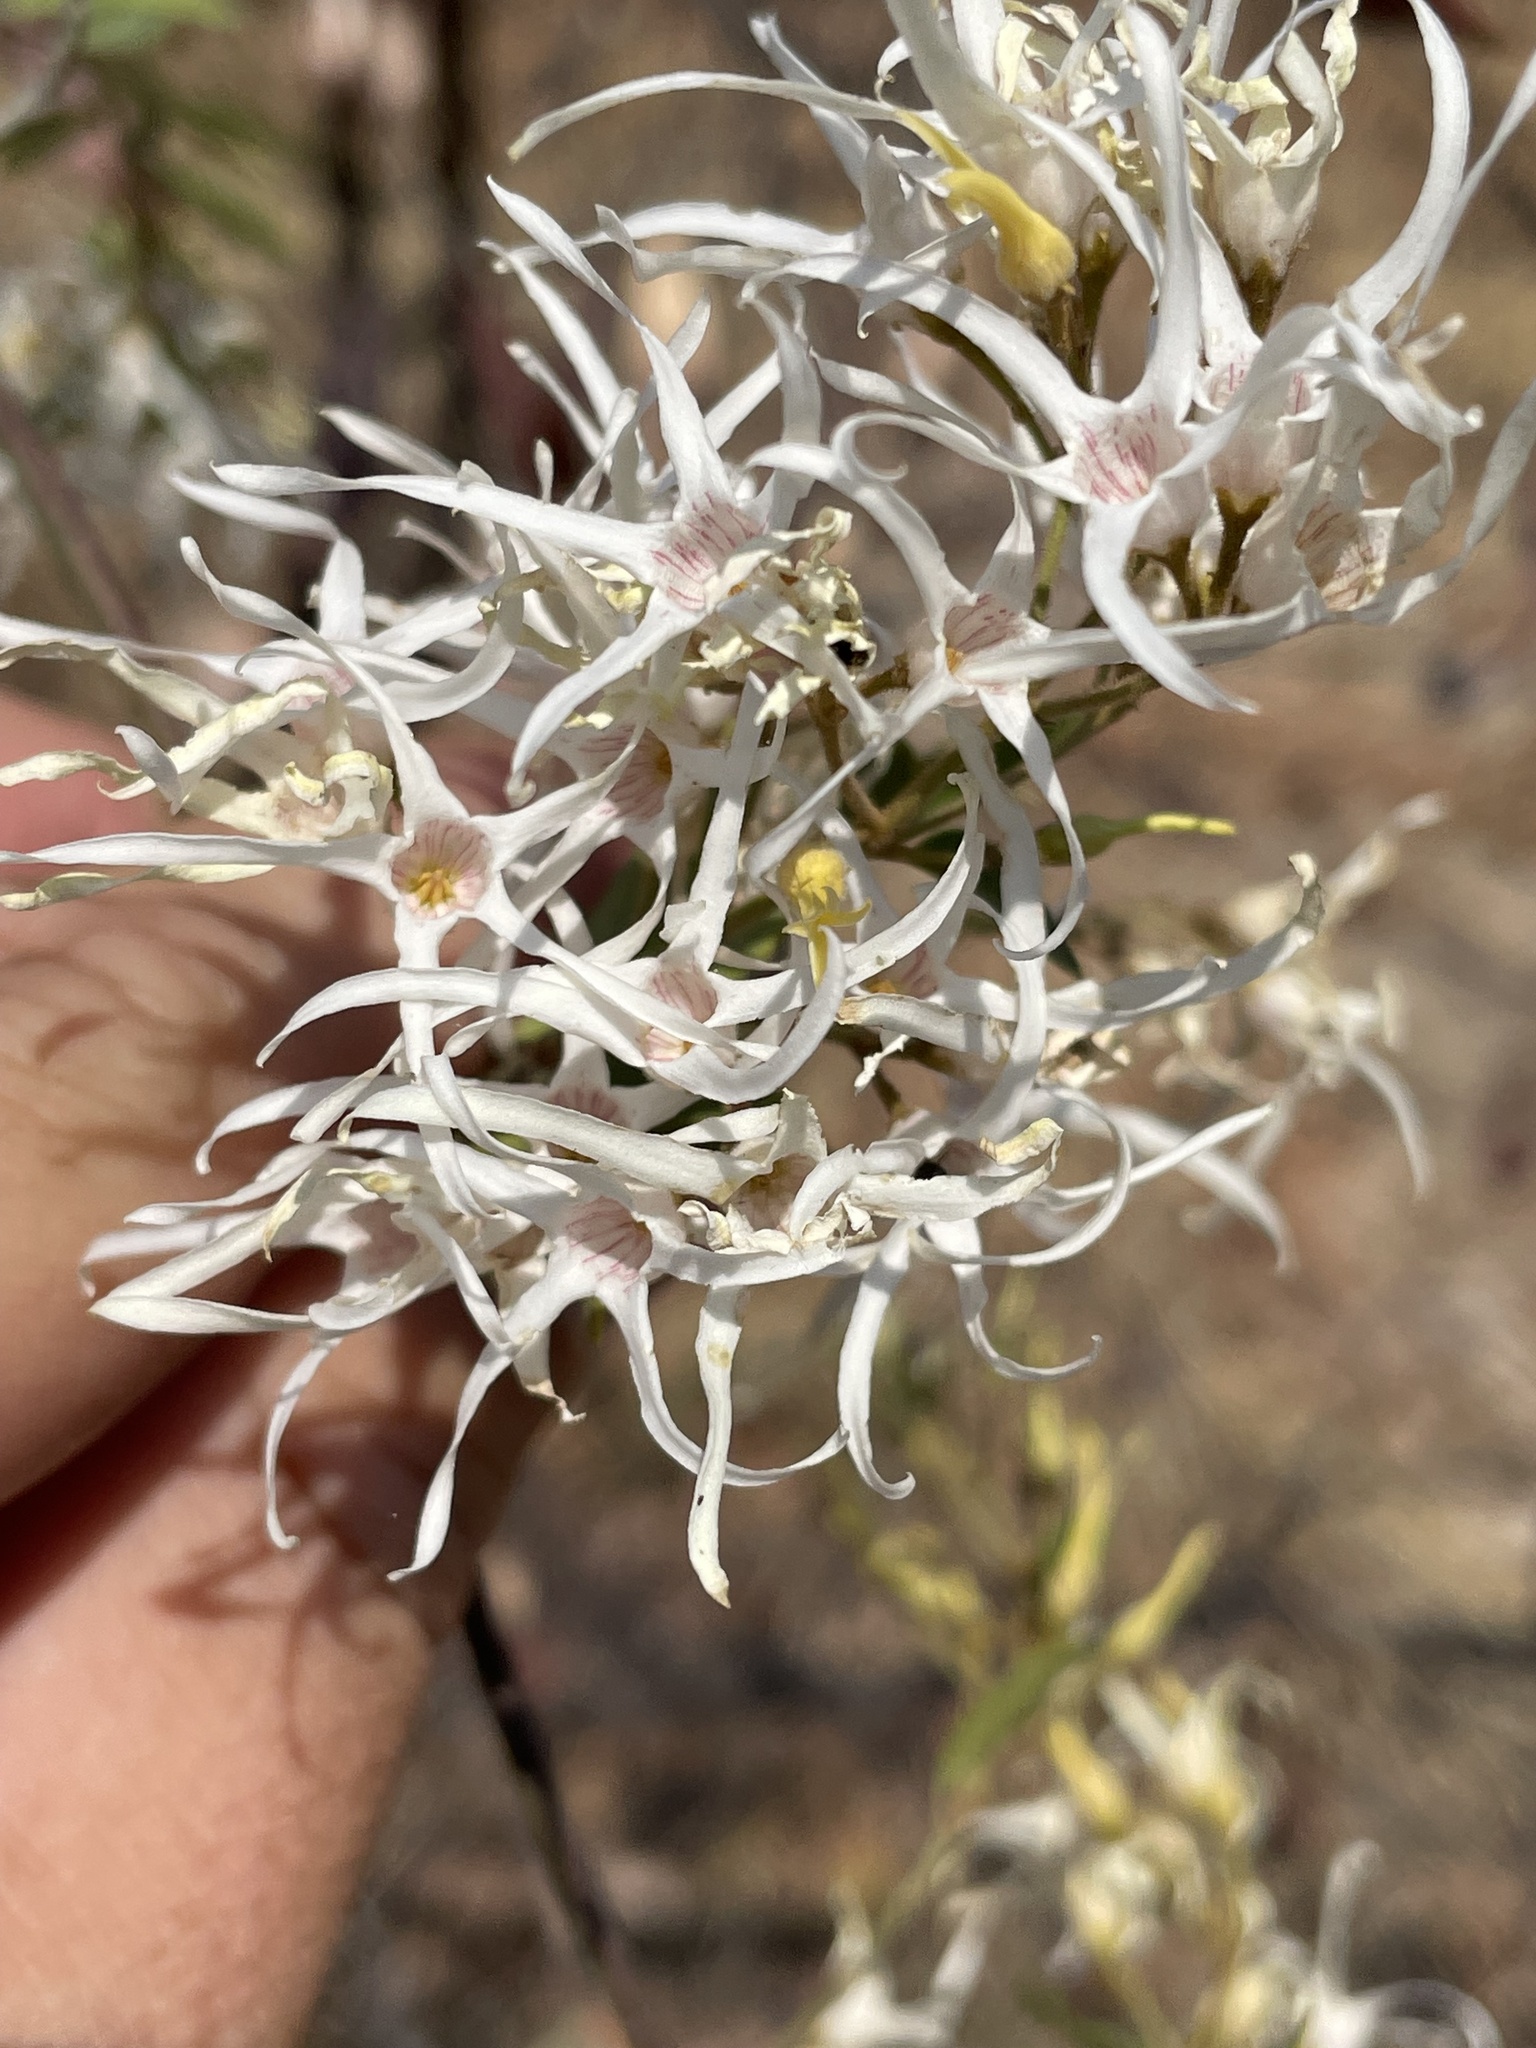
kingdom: Plantae
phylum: Tracheophyta
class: Magnoliopsida
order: Gentianales
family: Apocynaceae
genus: Baissea
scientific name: Baissea wulfhorstii
